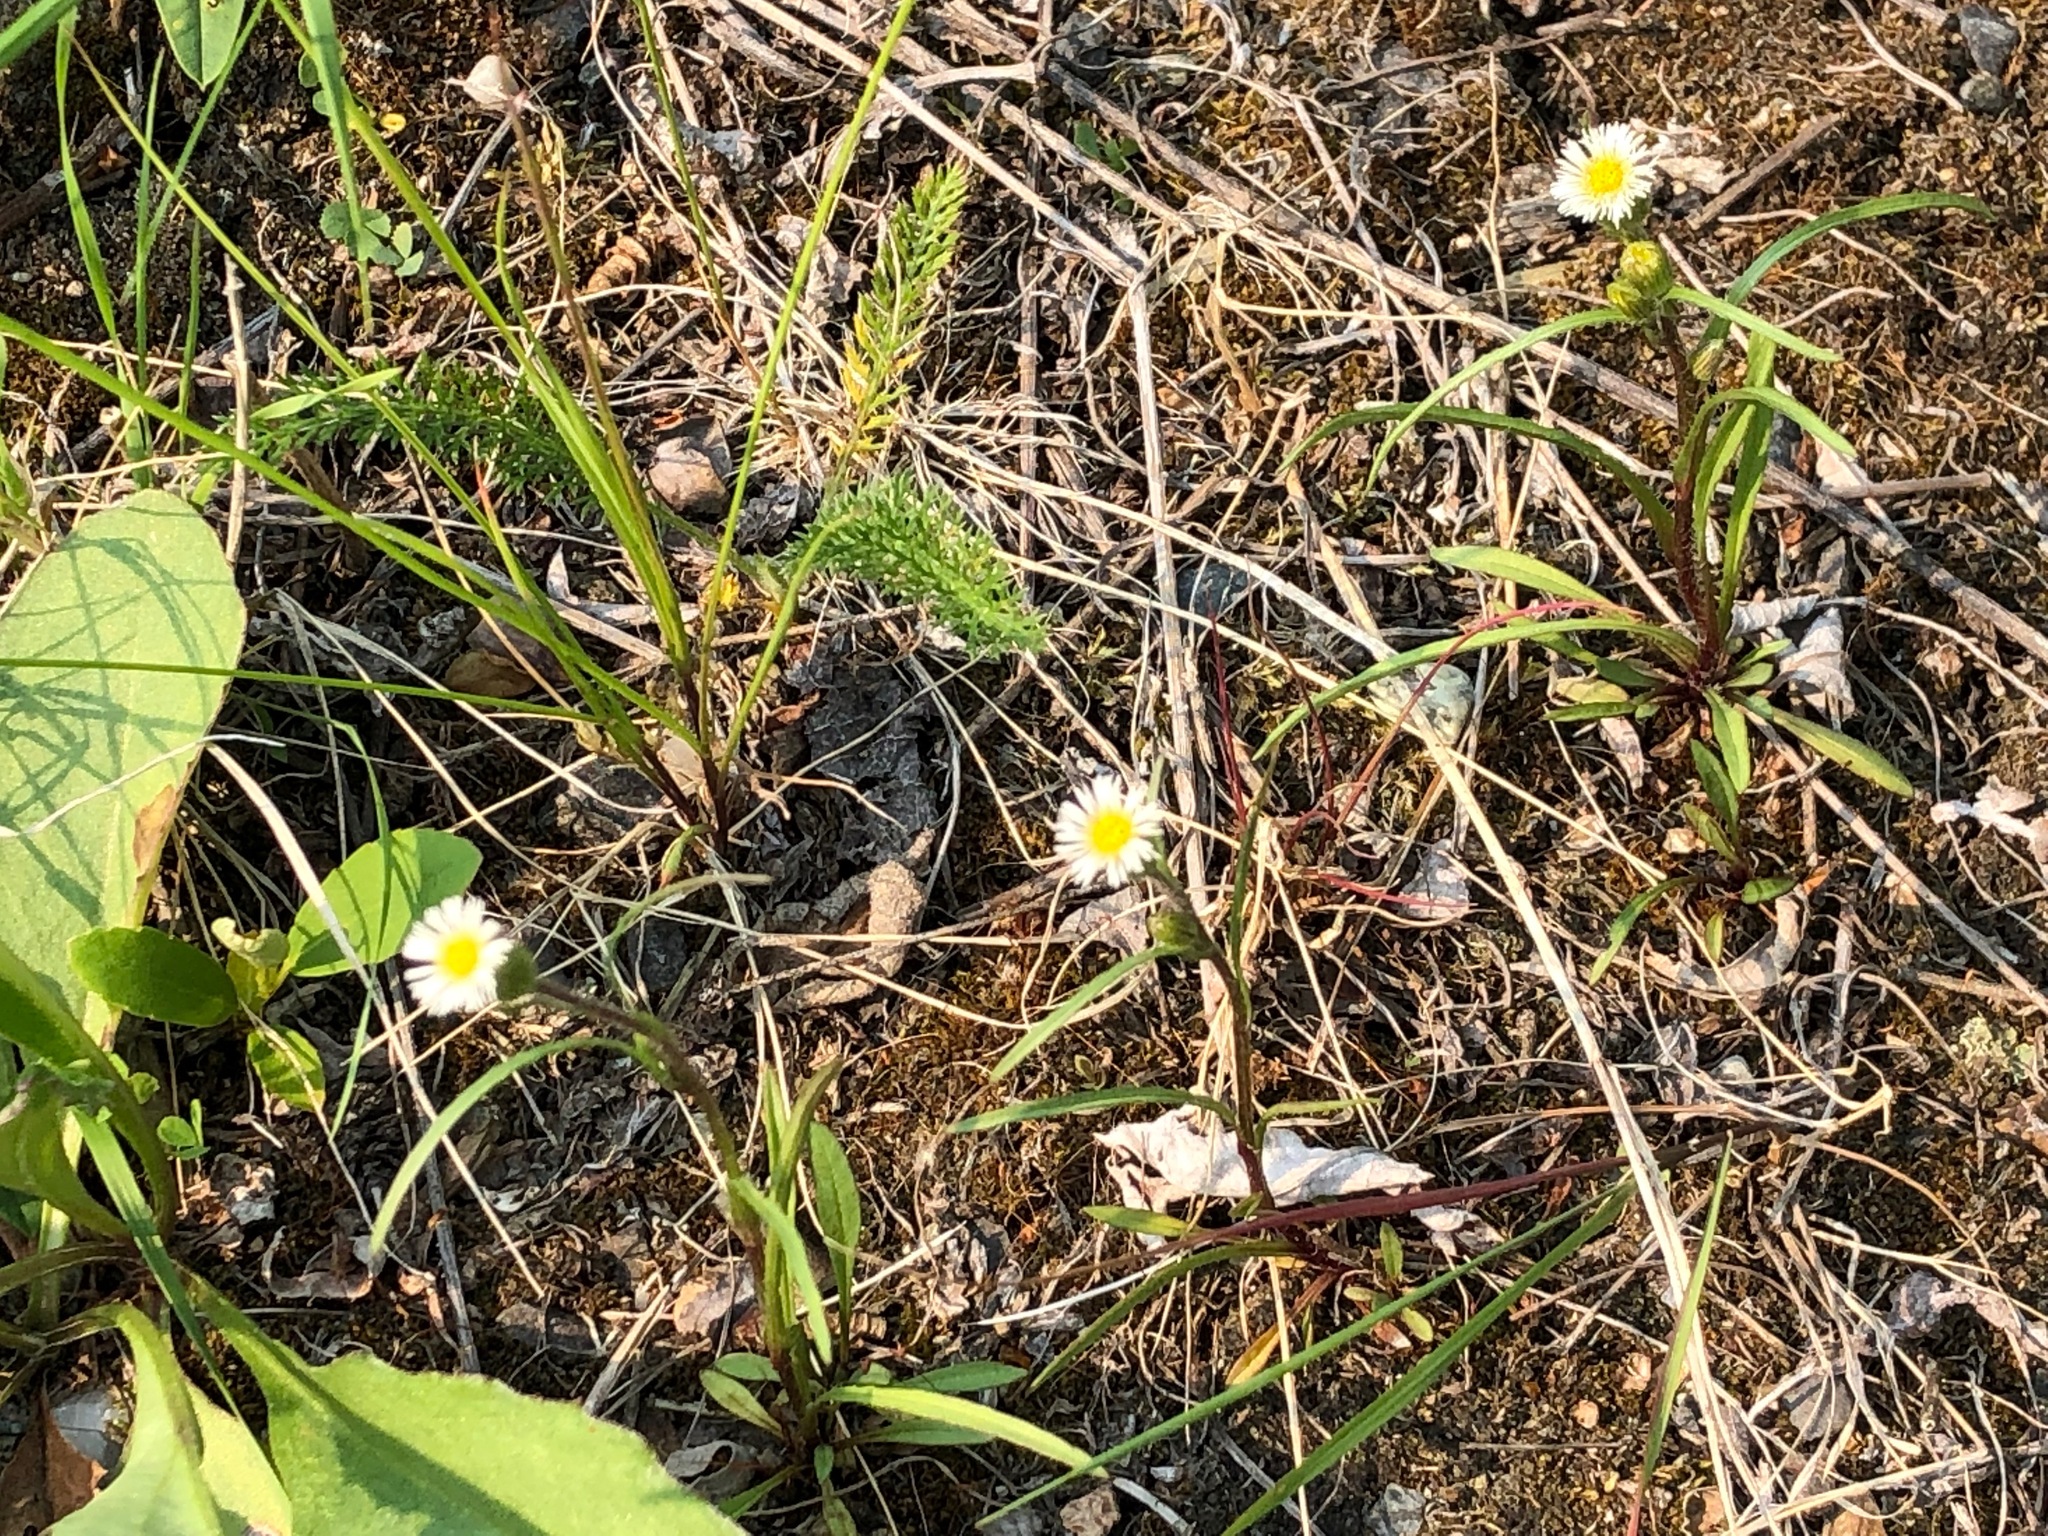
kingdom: Plantae
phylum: Tracheophyta
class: Magnoliopsida
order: Asterales
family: Asteraceae
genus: Erigeron
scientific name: Erigeron lonchophyllus
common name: Short-ray fleabane
